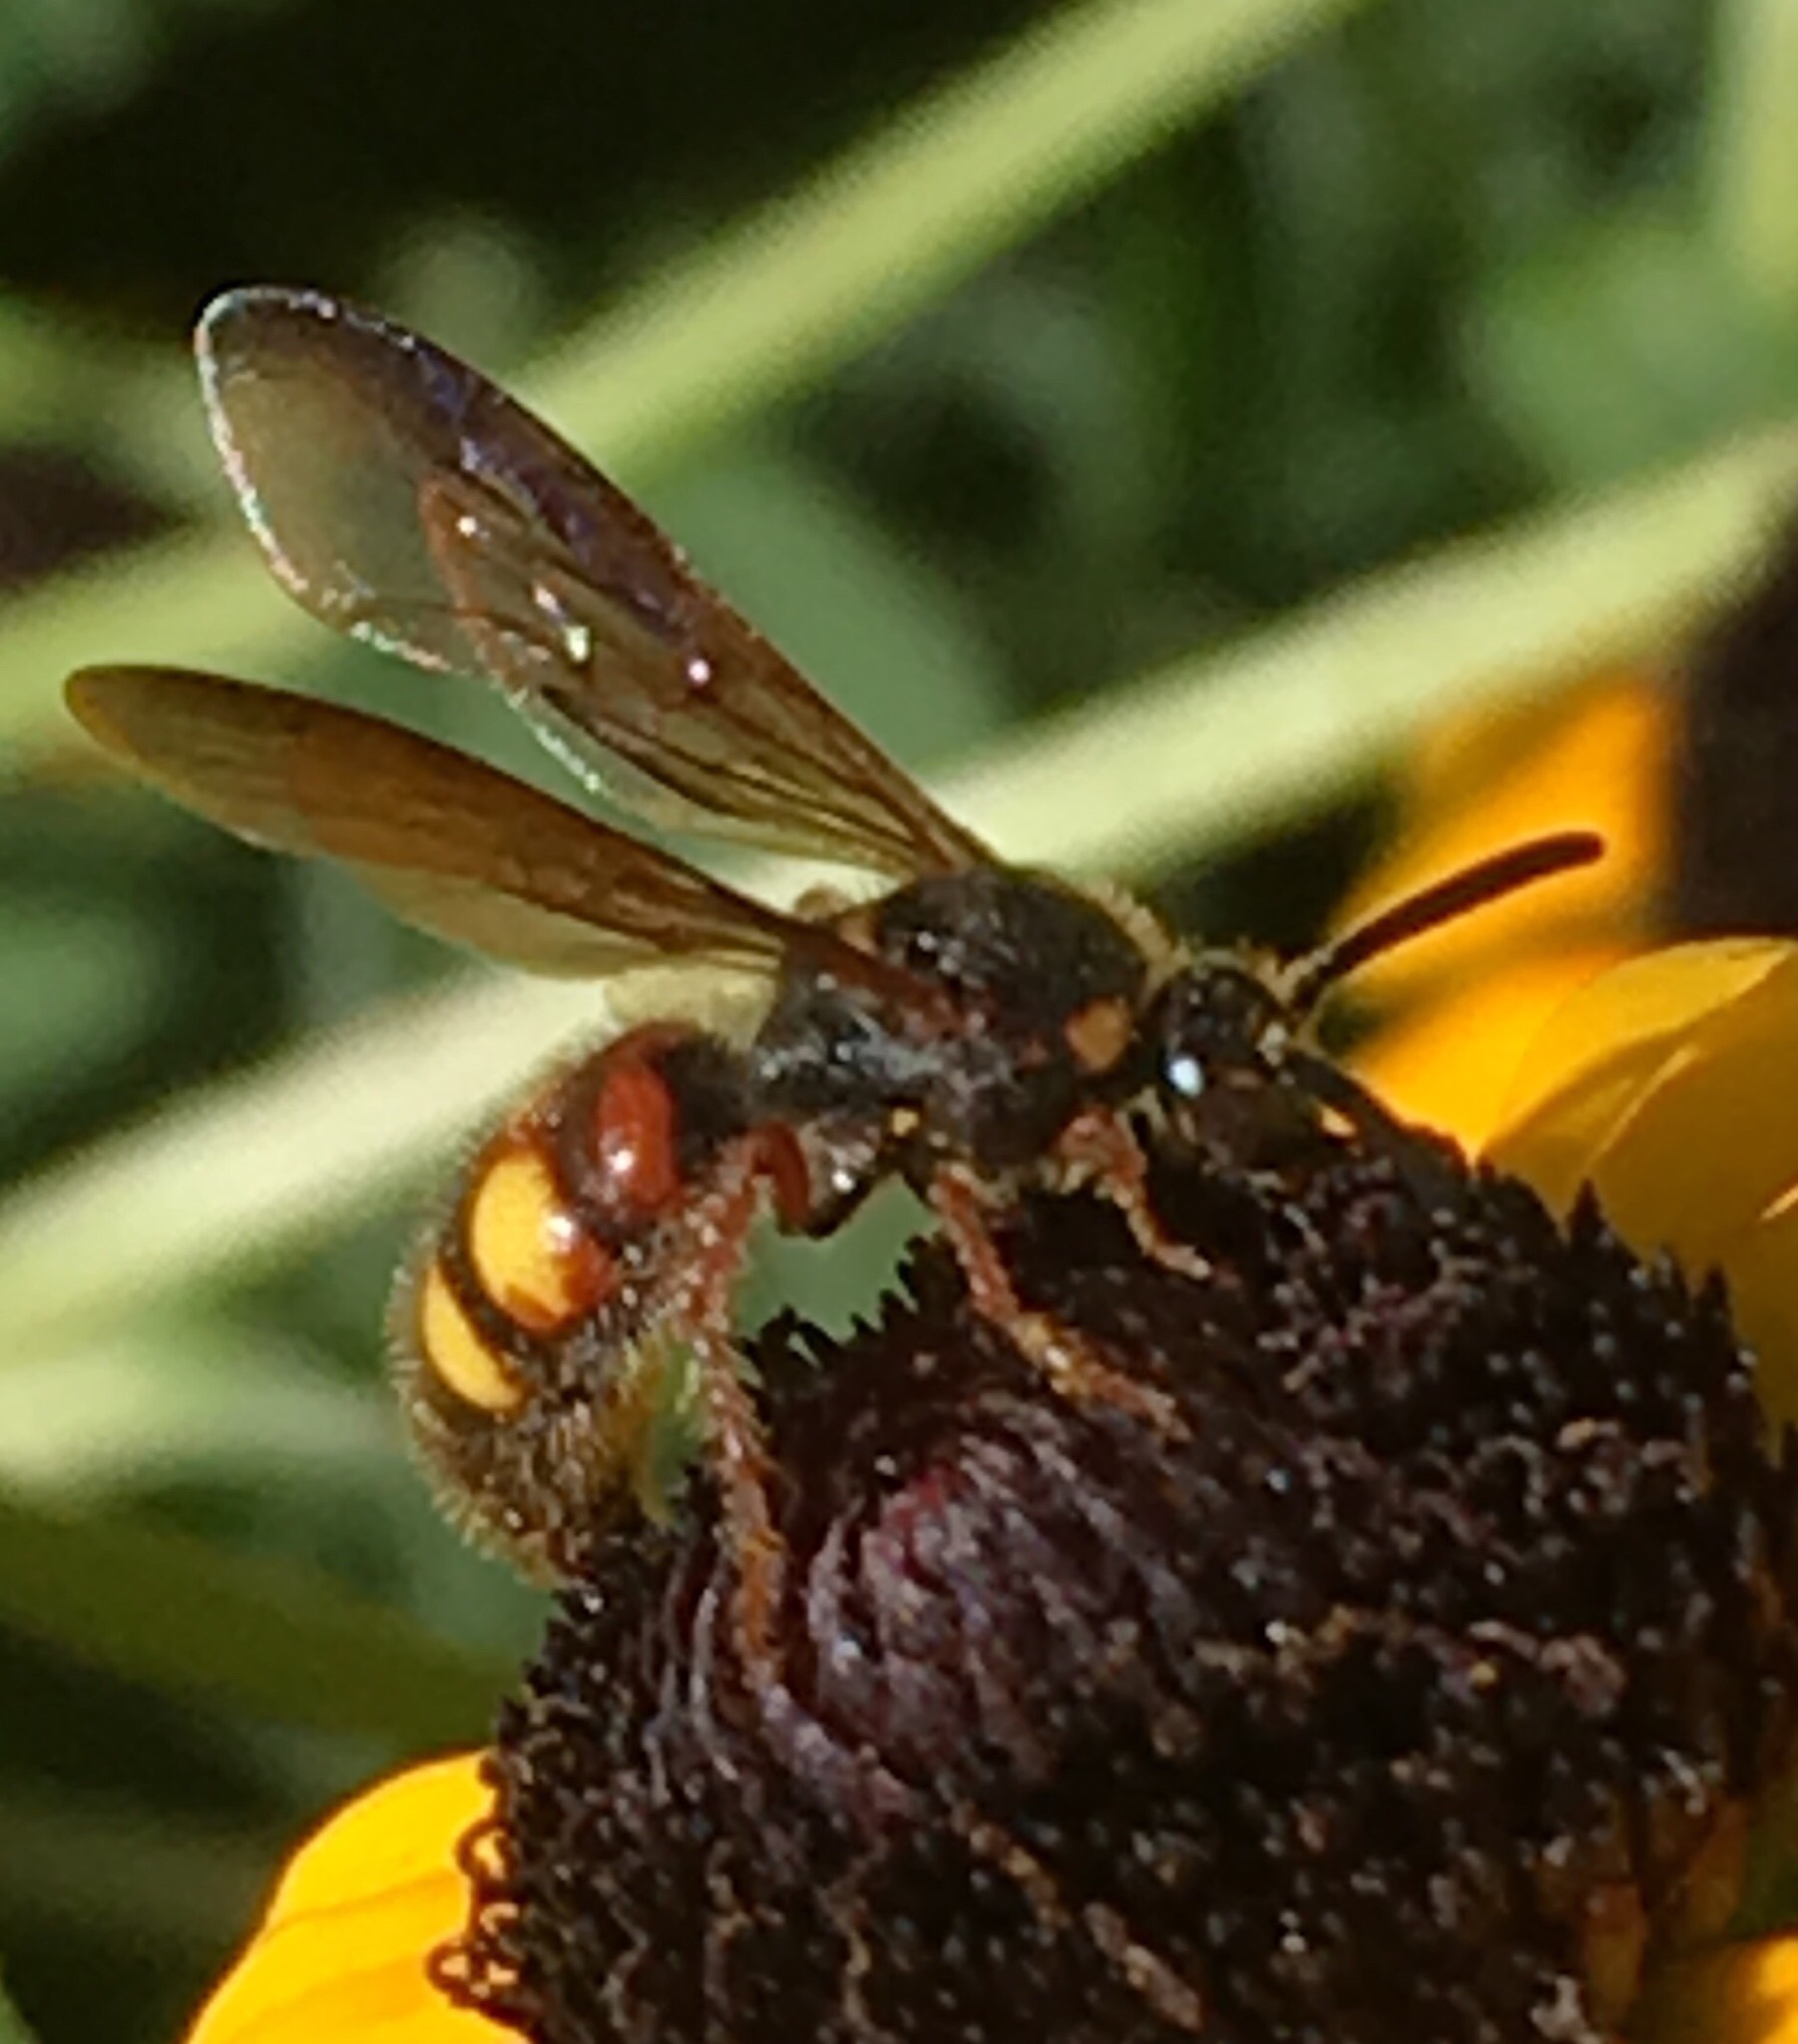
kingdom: Animalia
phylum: Arthropoda
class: Insecta
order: Hymenoptera
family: Scoliidae
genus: Scolia
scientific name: Scolia nobilitata
